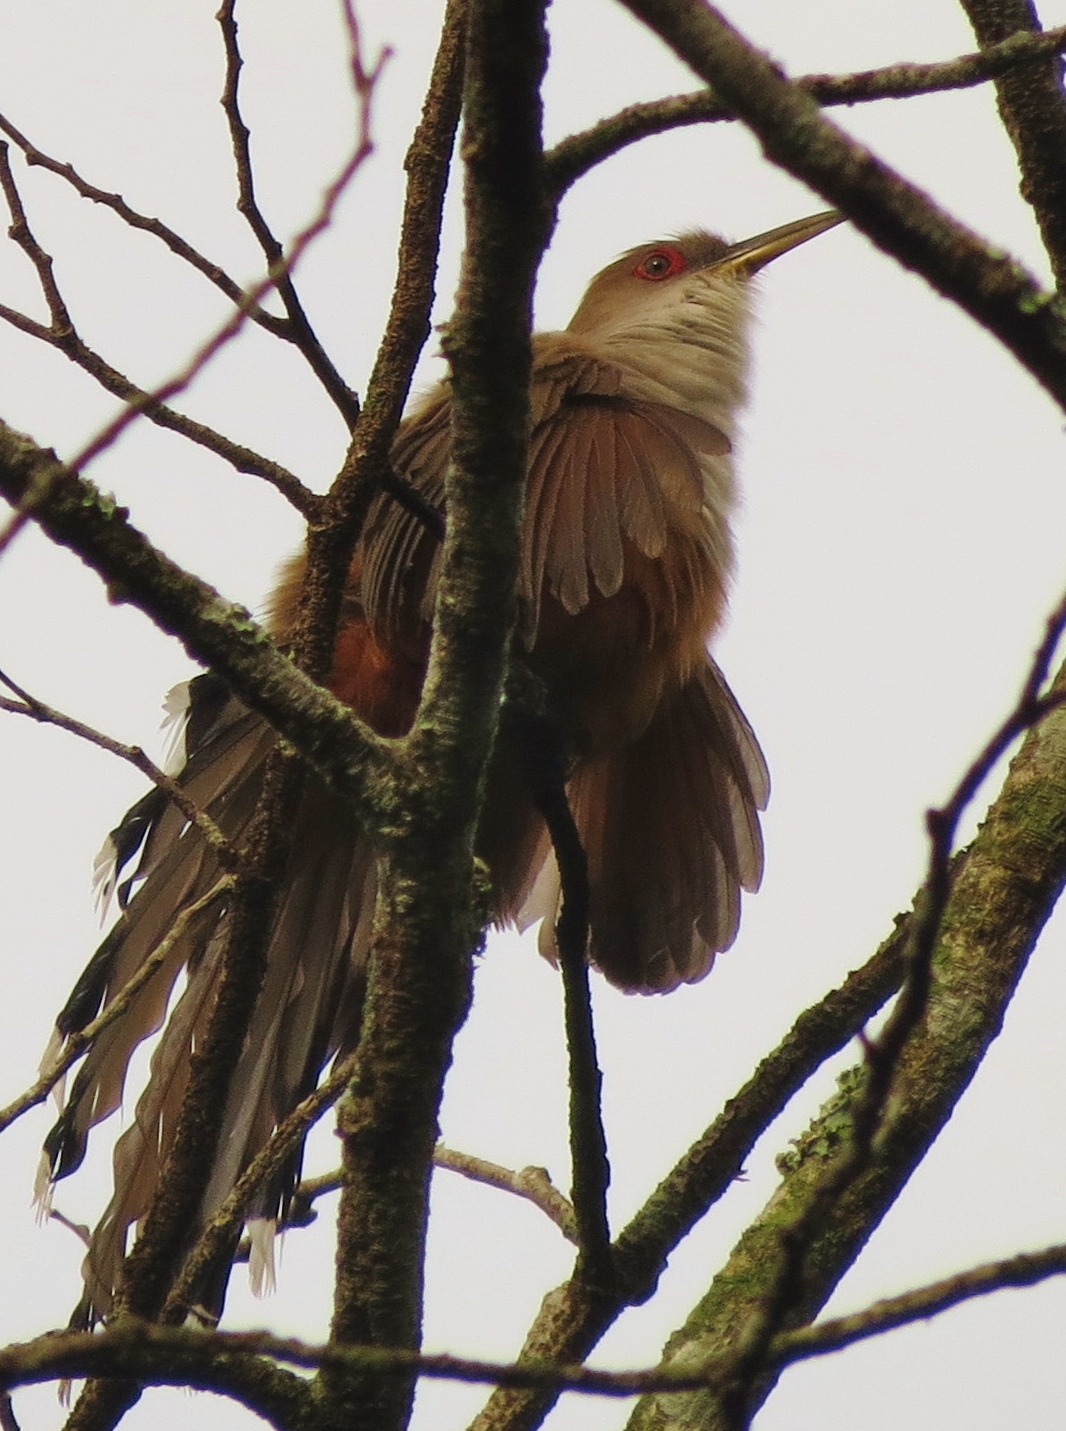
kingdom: Animalia
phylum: Chordata
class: Aves
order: Cuculiformes
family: Cuculidae
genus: Saurothera
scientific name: Saurothera vieilloti
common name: Puerto rican lizard-cuckoo
